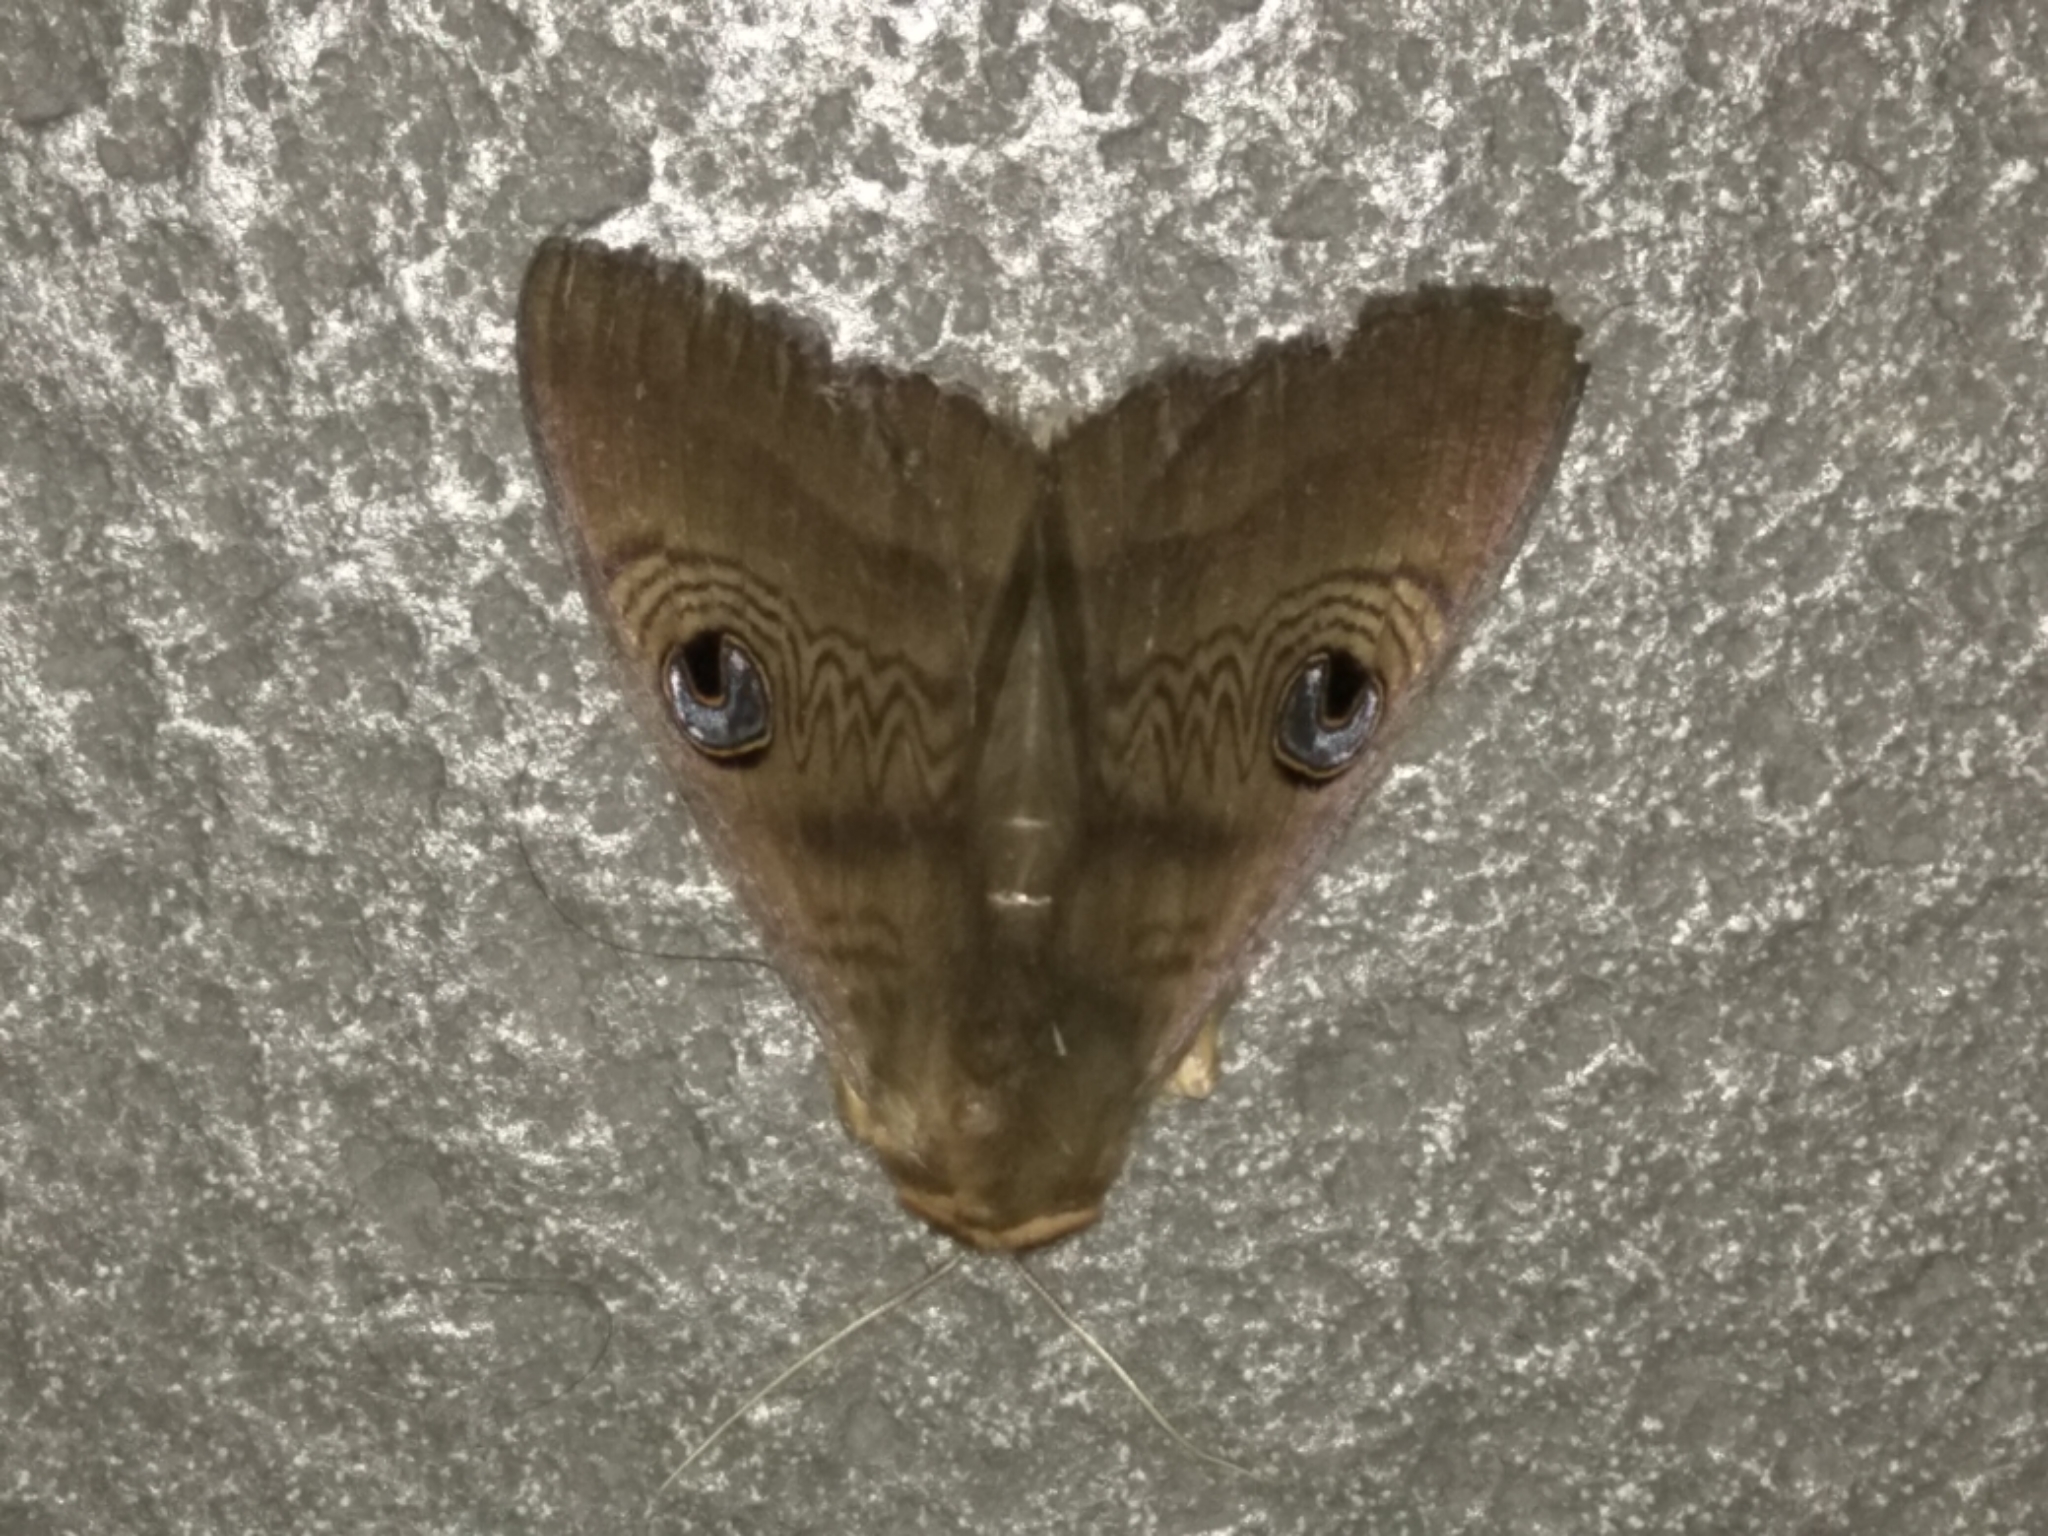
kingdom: Animalia
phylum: Arthropoda
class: Insecta
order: Lepidoptera
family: Erebidae
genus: Dasypodia
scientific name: Dasypodia selenophora
